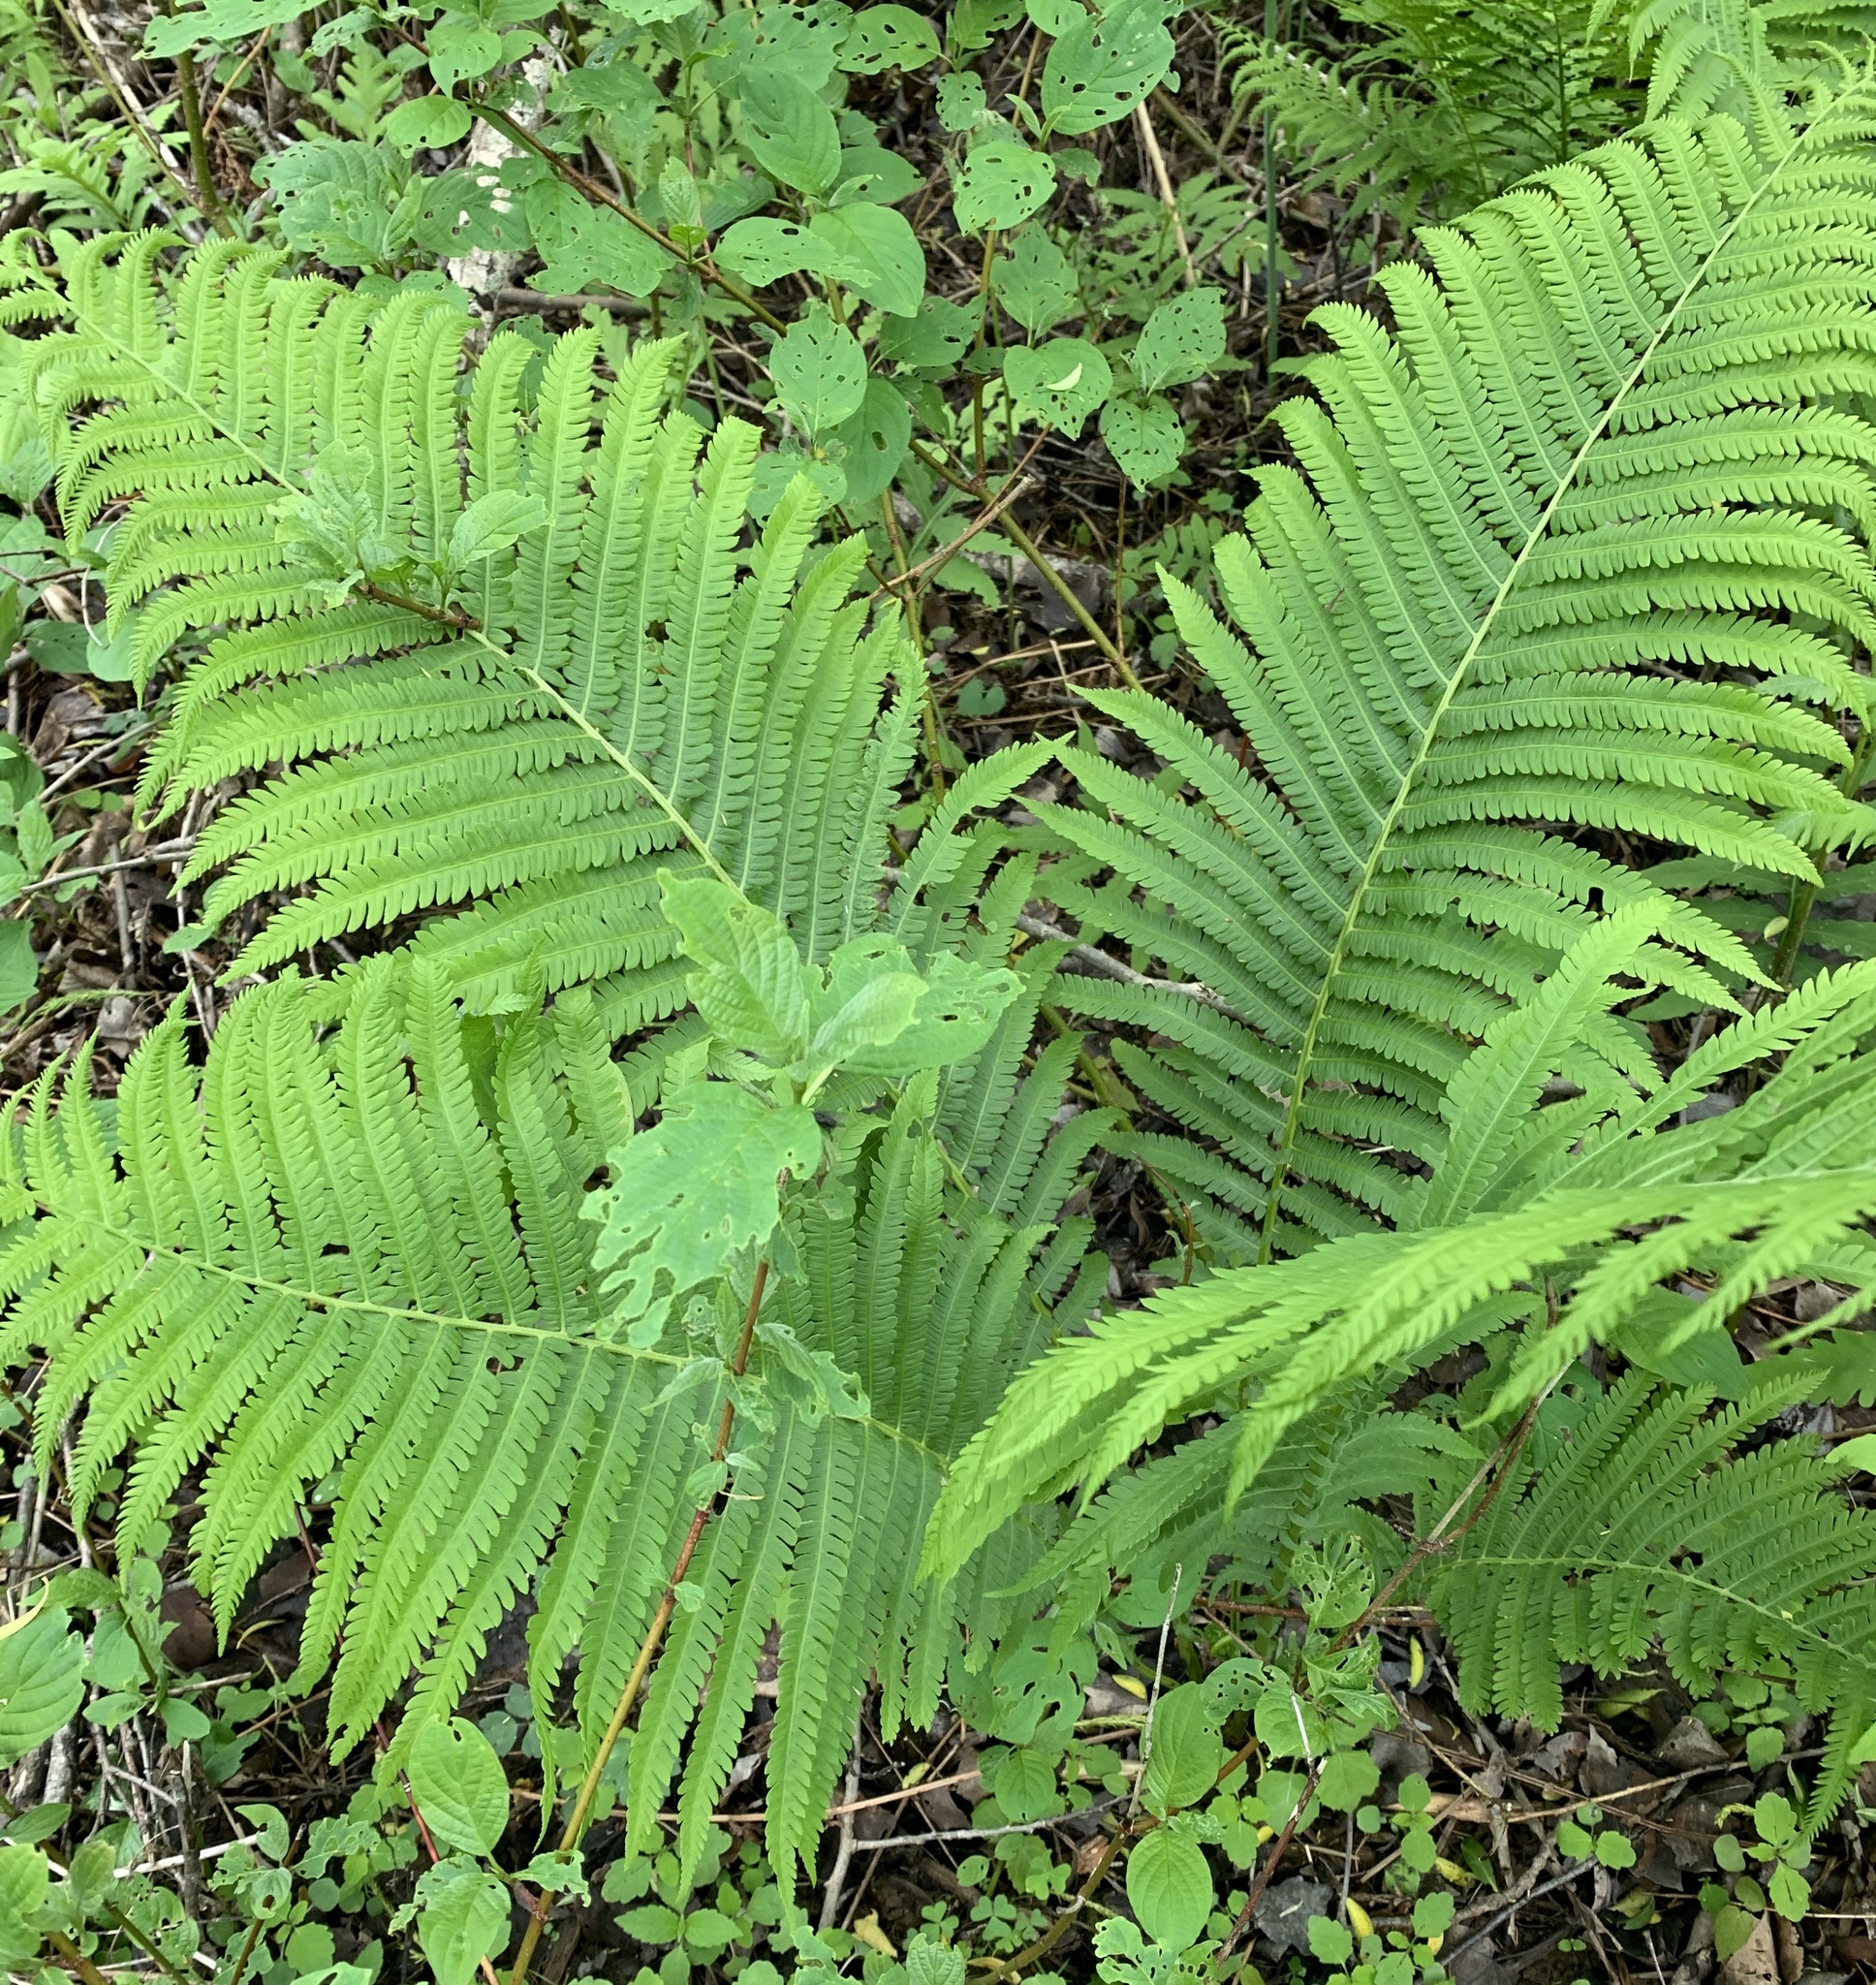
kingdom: Plantae
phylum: Tracheophyta
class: Polypodiopsida
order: Polypodiales
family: Onocleaceae
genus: Matteuccia
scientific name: Matteuccia struthiopteris
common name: Ostrich fern
